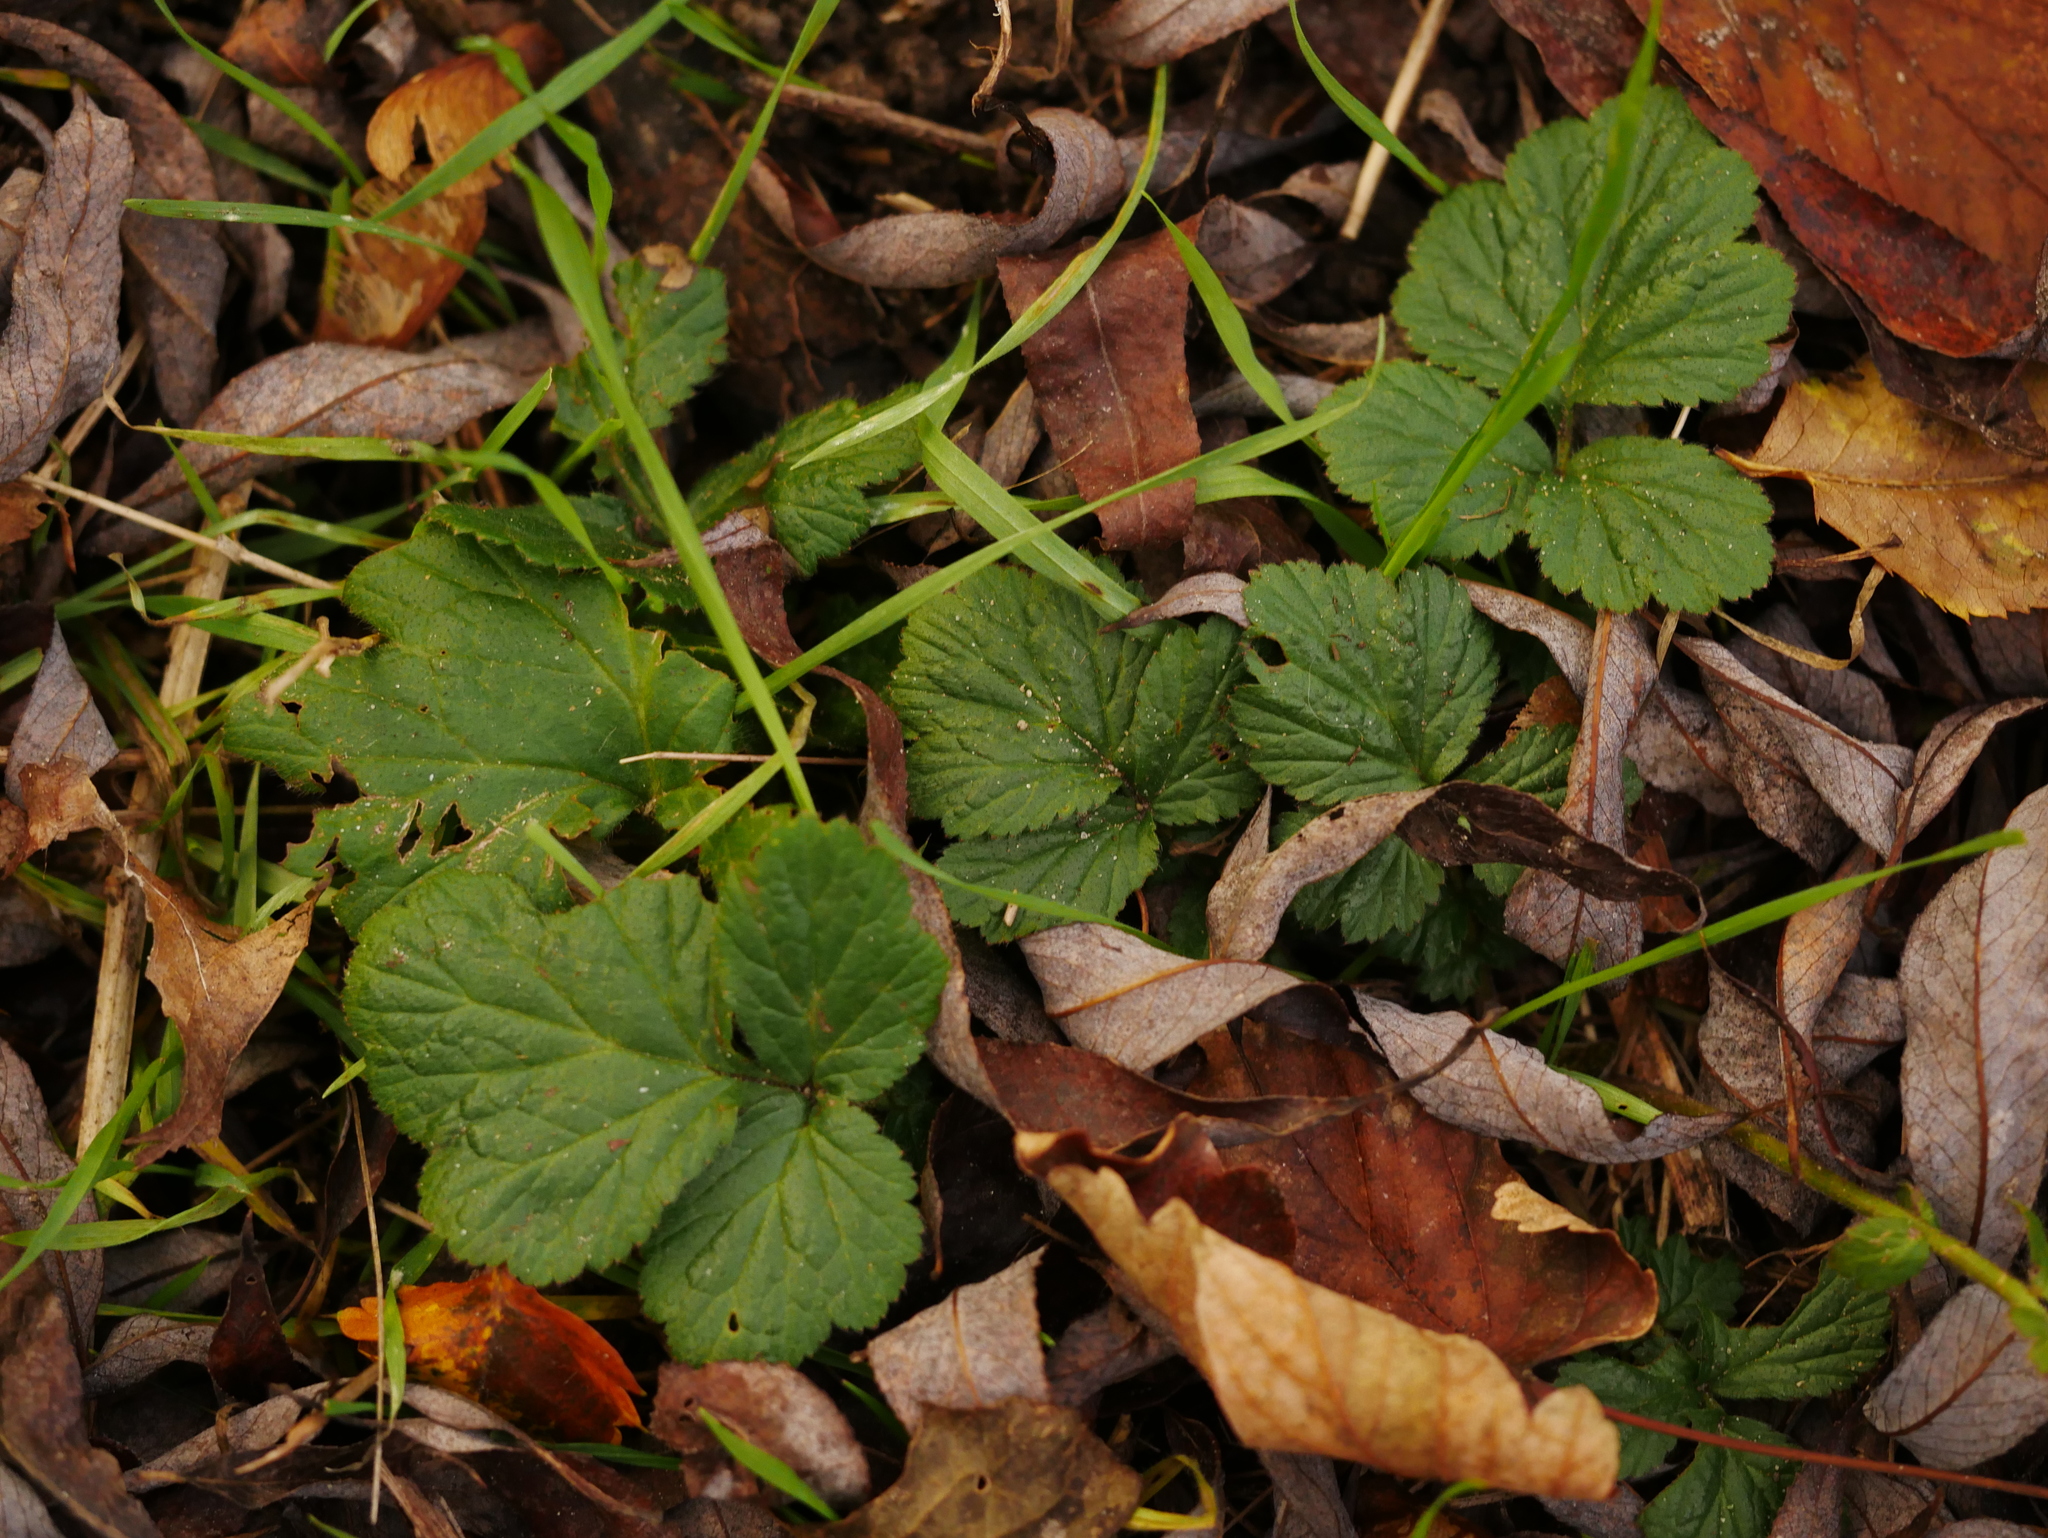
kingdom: Plantae
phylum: Tracheophyta
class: Magnoliopsida
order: Rosales
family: Rosaceae
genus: Geum
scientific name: Geum urbanum
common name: Wood avens
